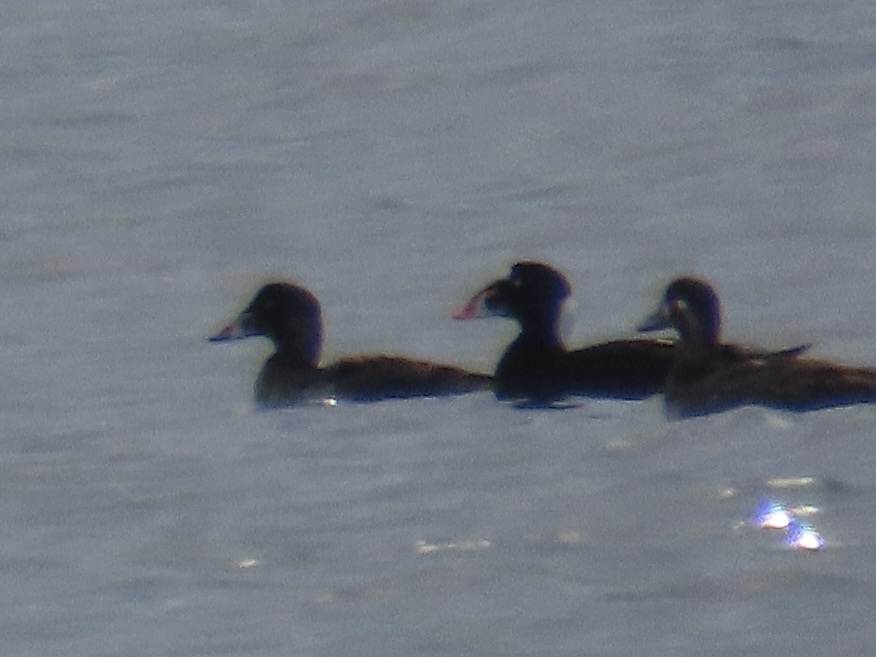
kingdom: Animalia
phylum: Chordata
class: Aves
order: Anseriformes
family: Anatidae
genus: Melanitta
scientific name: Melanitta perspicillata
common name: Surf scoter
